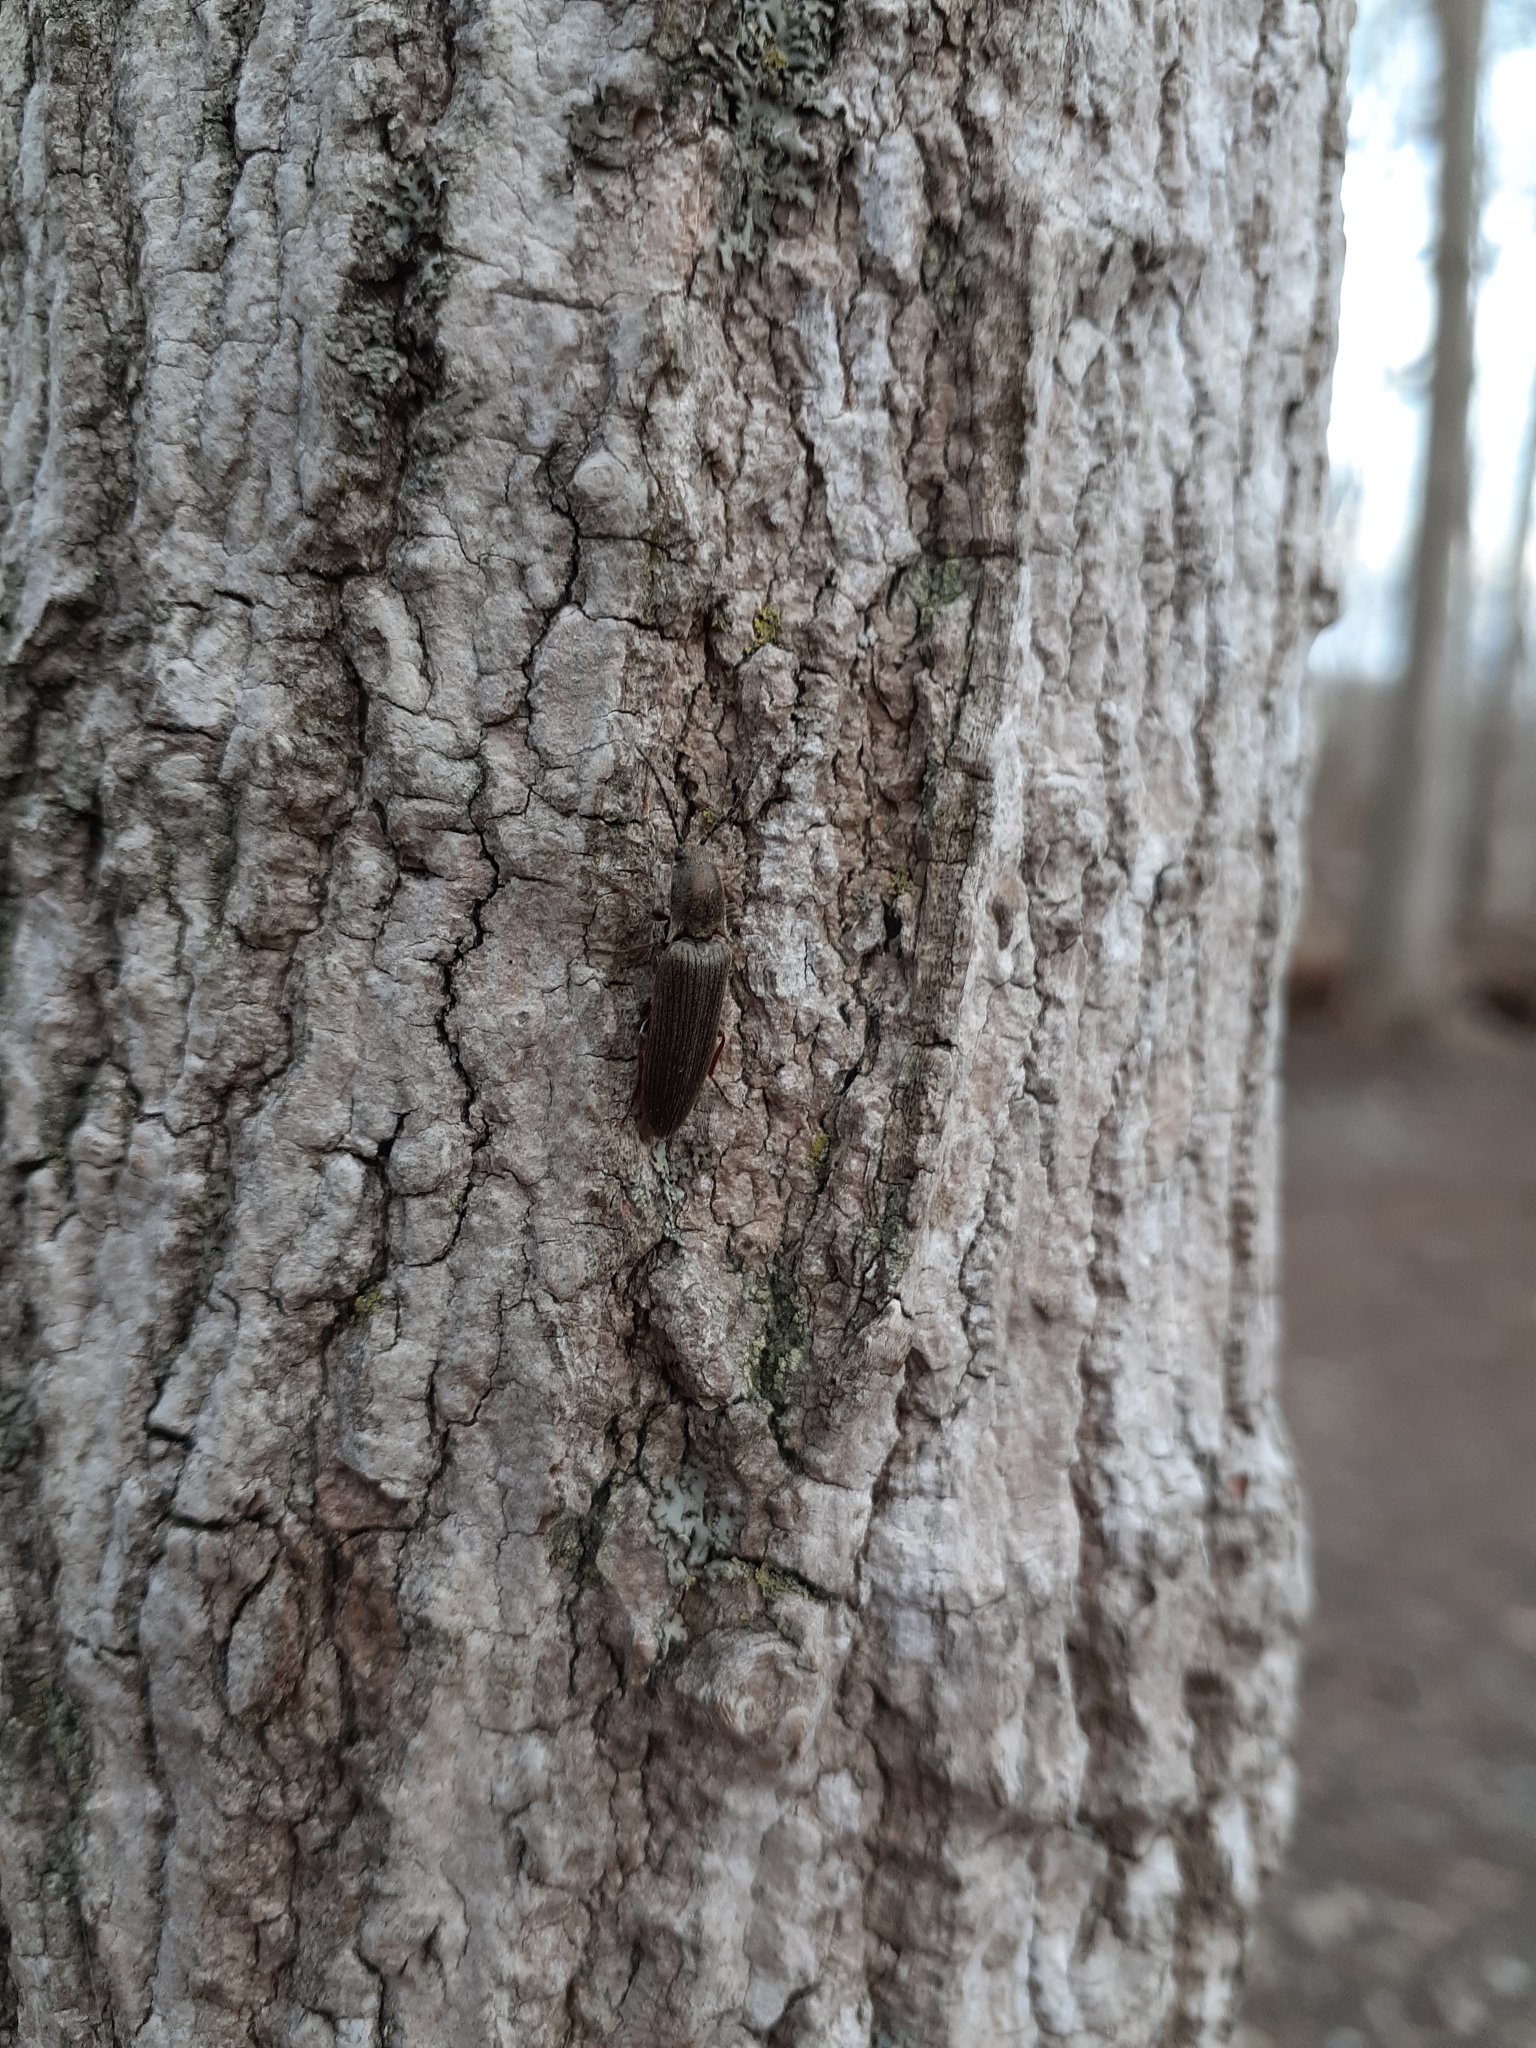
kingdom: Animalia
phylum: Arthropoda
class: Insecta
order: Coleoptera
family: Elateridae
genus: Sylvanelater
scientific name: Sylvanelater cylindriformis
